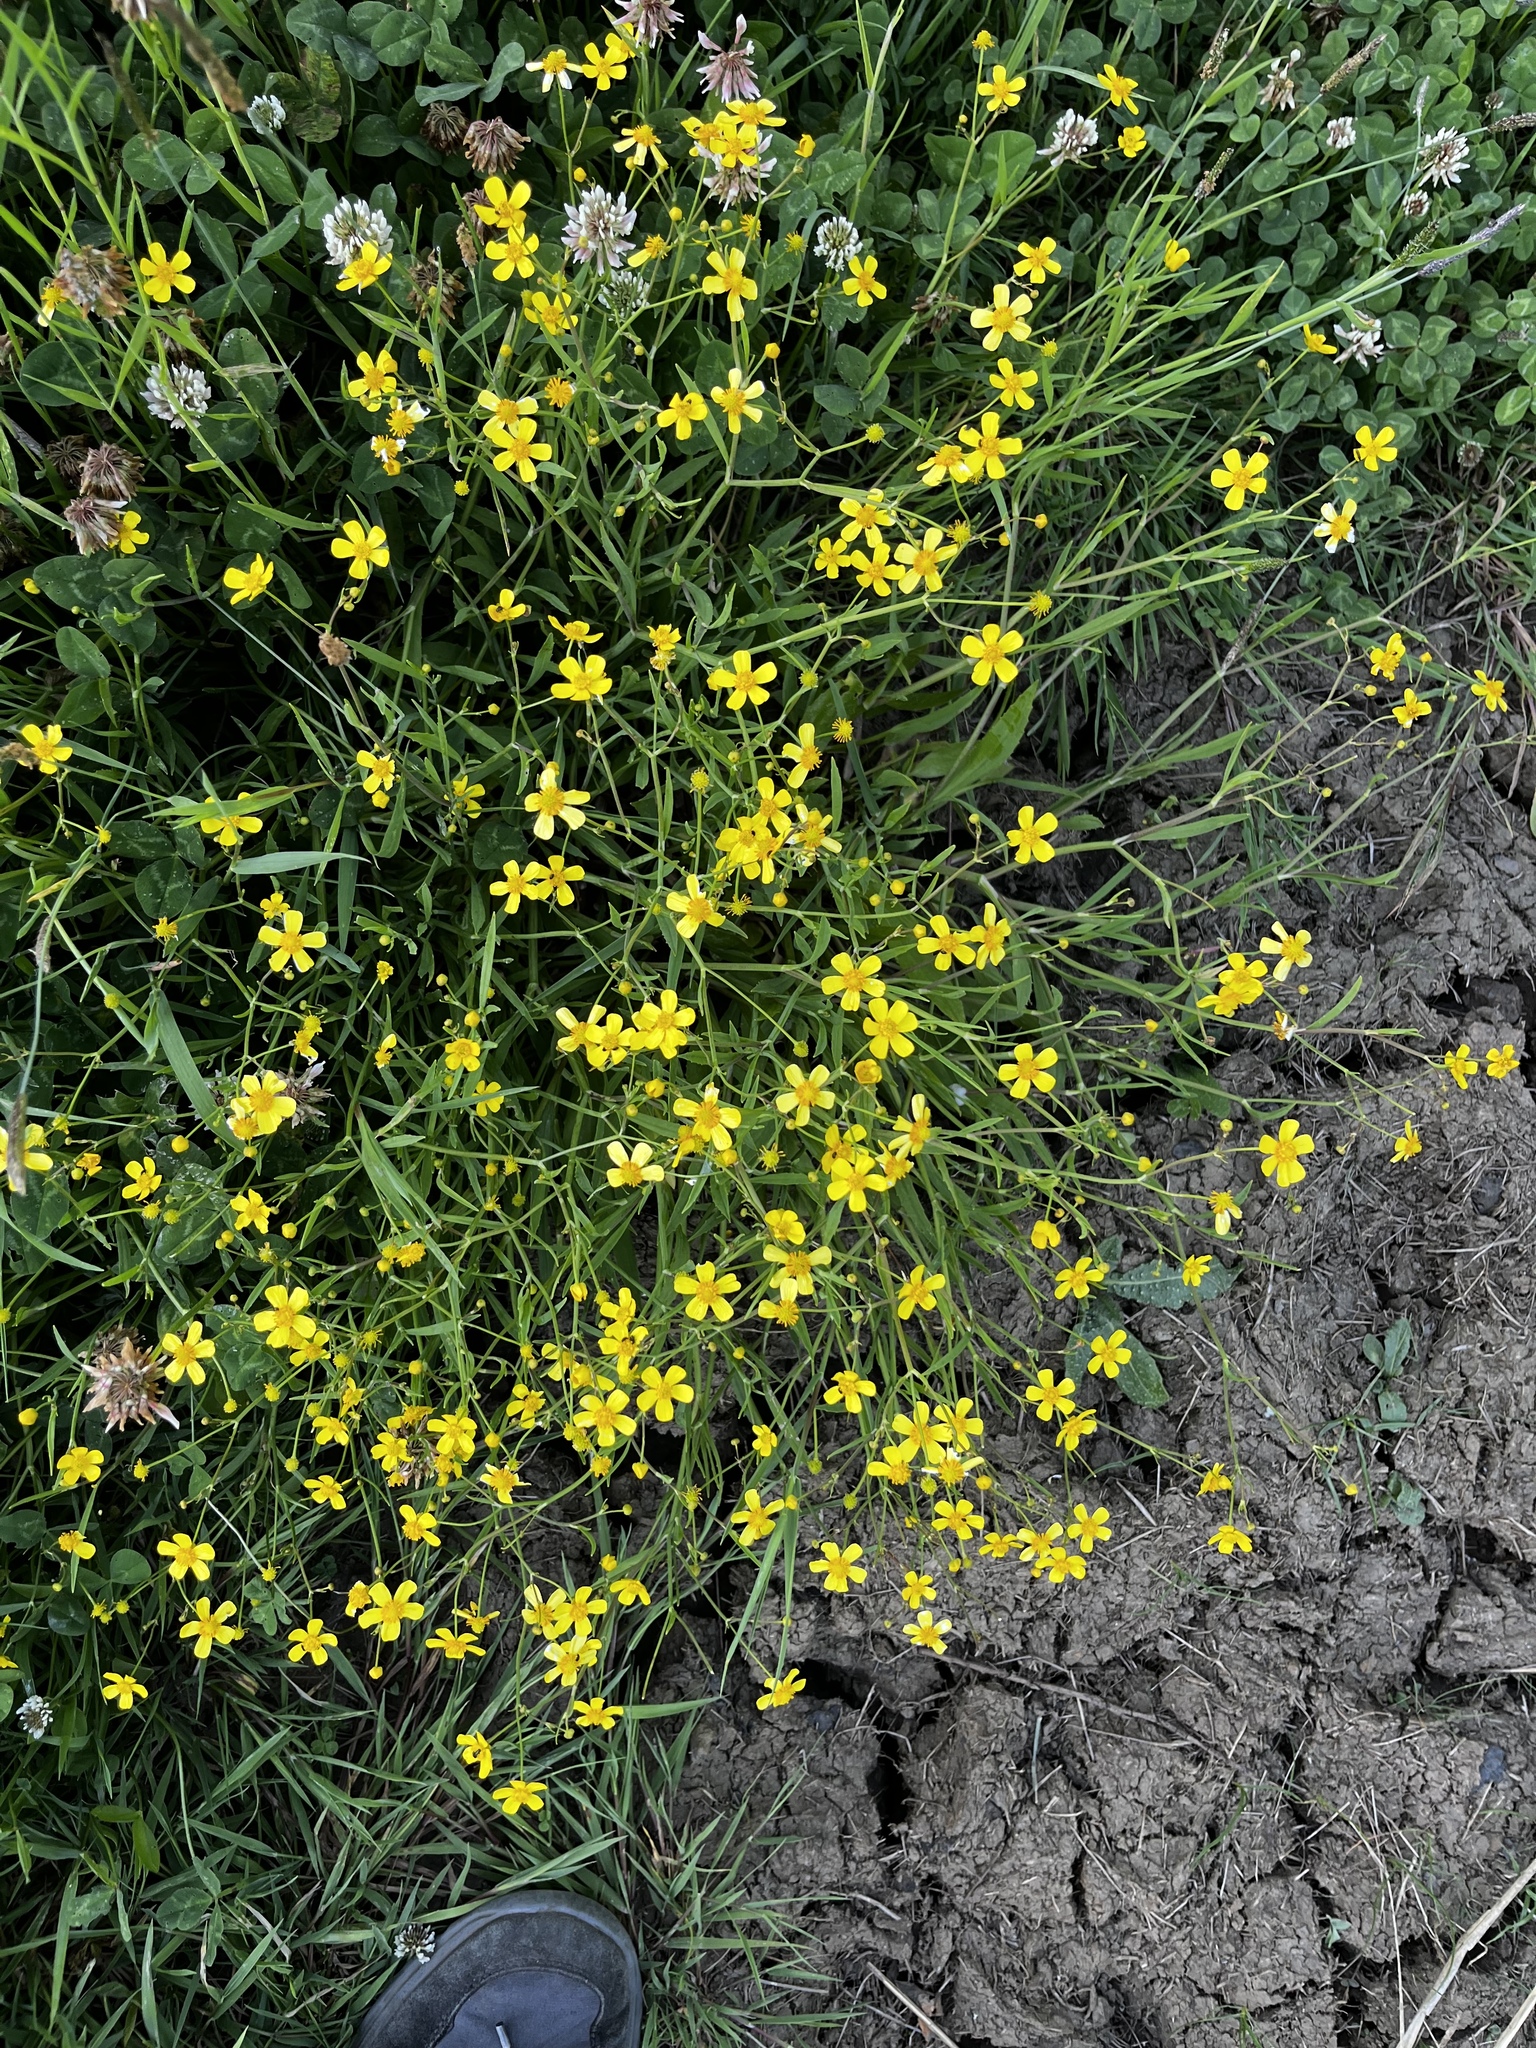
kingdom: Plantae
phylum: Tracheophyta
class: Magnoliopsida
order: Ranunculales
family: Ranunculaceae
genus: Ranunculus
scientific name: Ranunculus flammula
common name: Lesser spearwort
